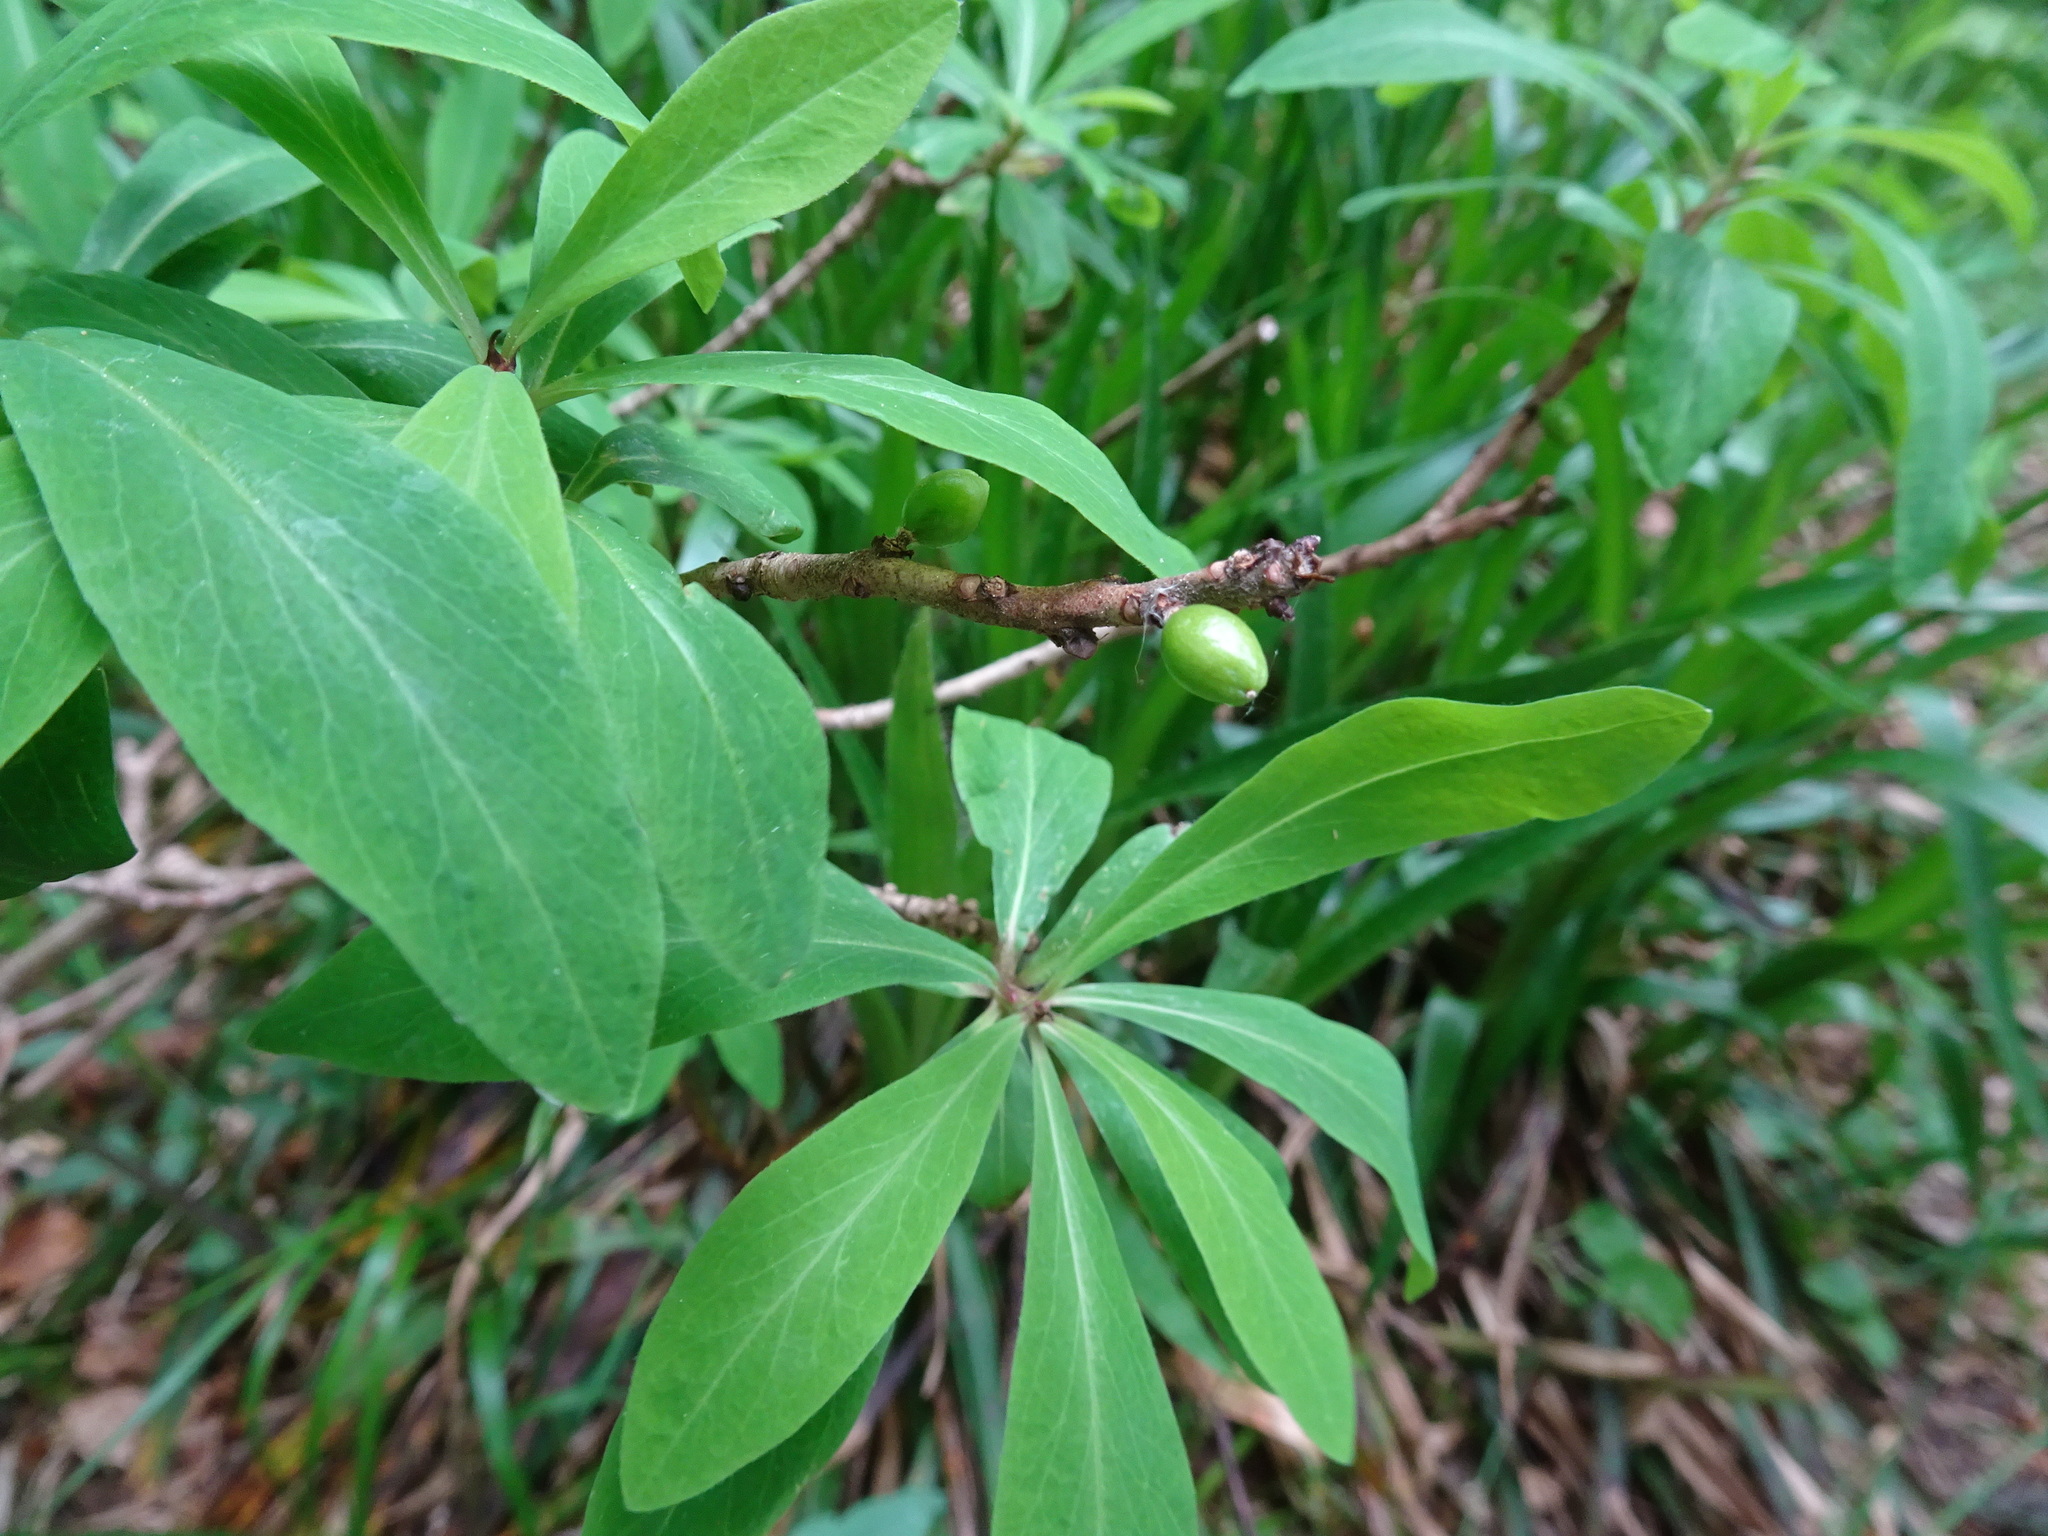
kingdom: Plantae
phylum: Tracheophyta
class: Magnoliopsida
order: Malvales
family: Thymelaeaceae
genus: Daphne
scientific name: Daphne mezereum
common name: Mezereon
